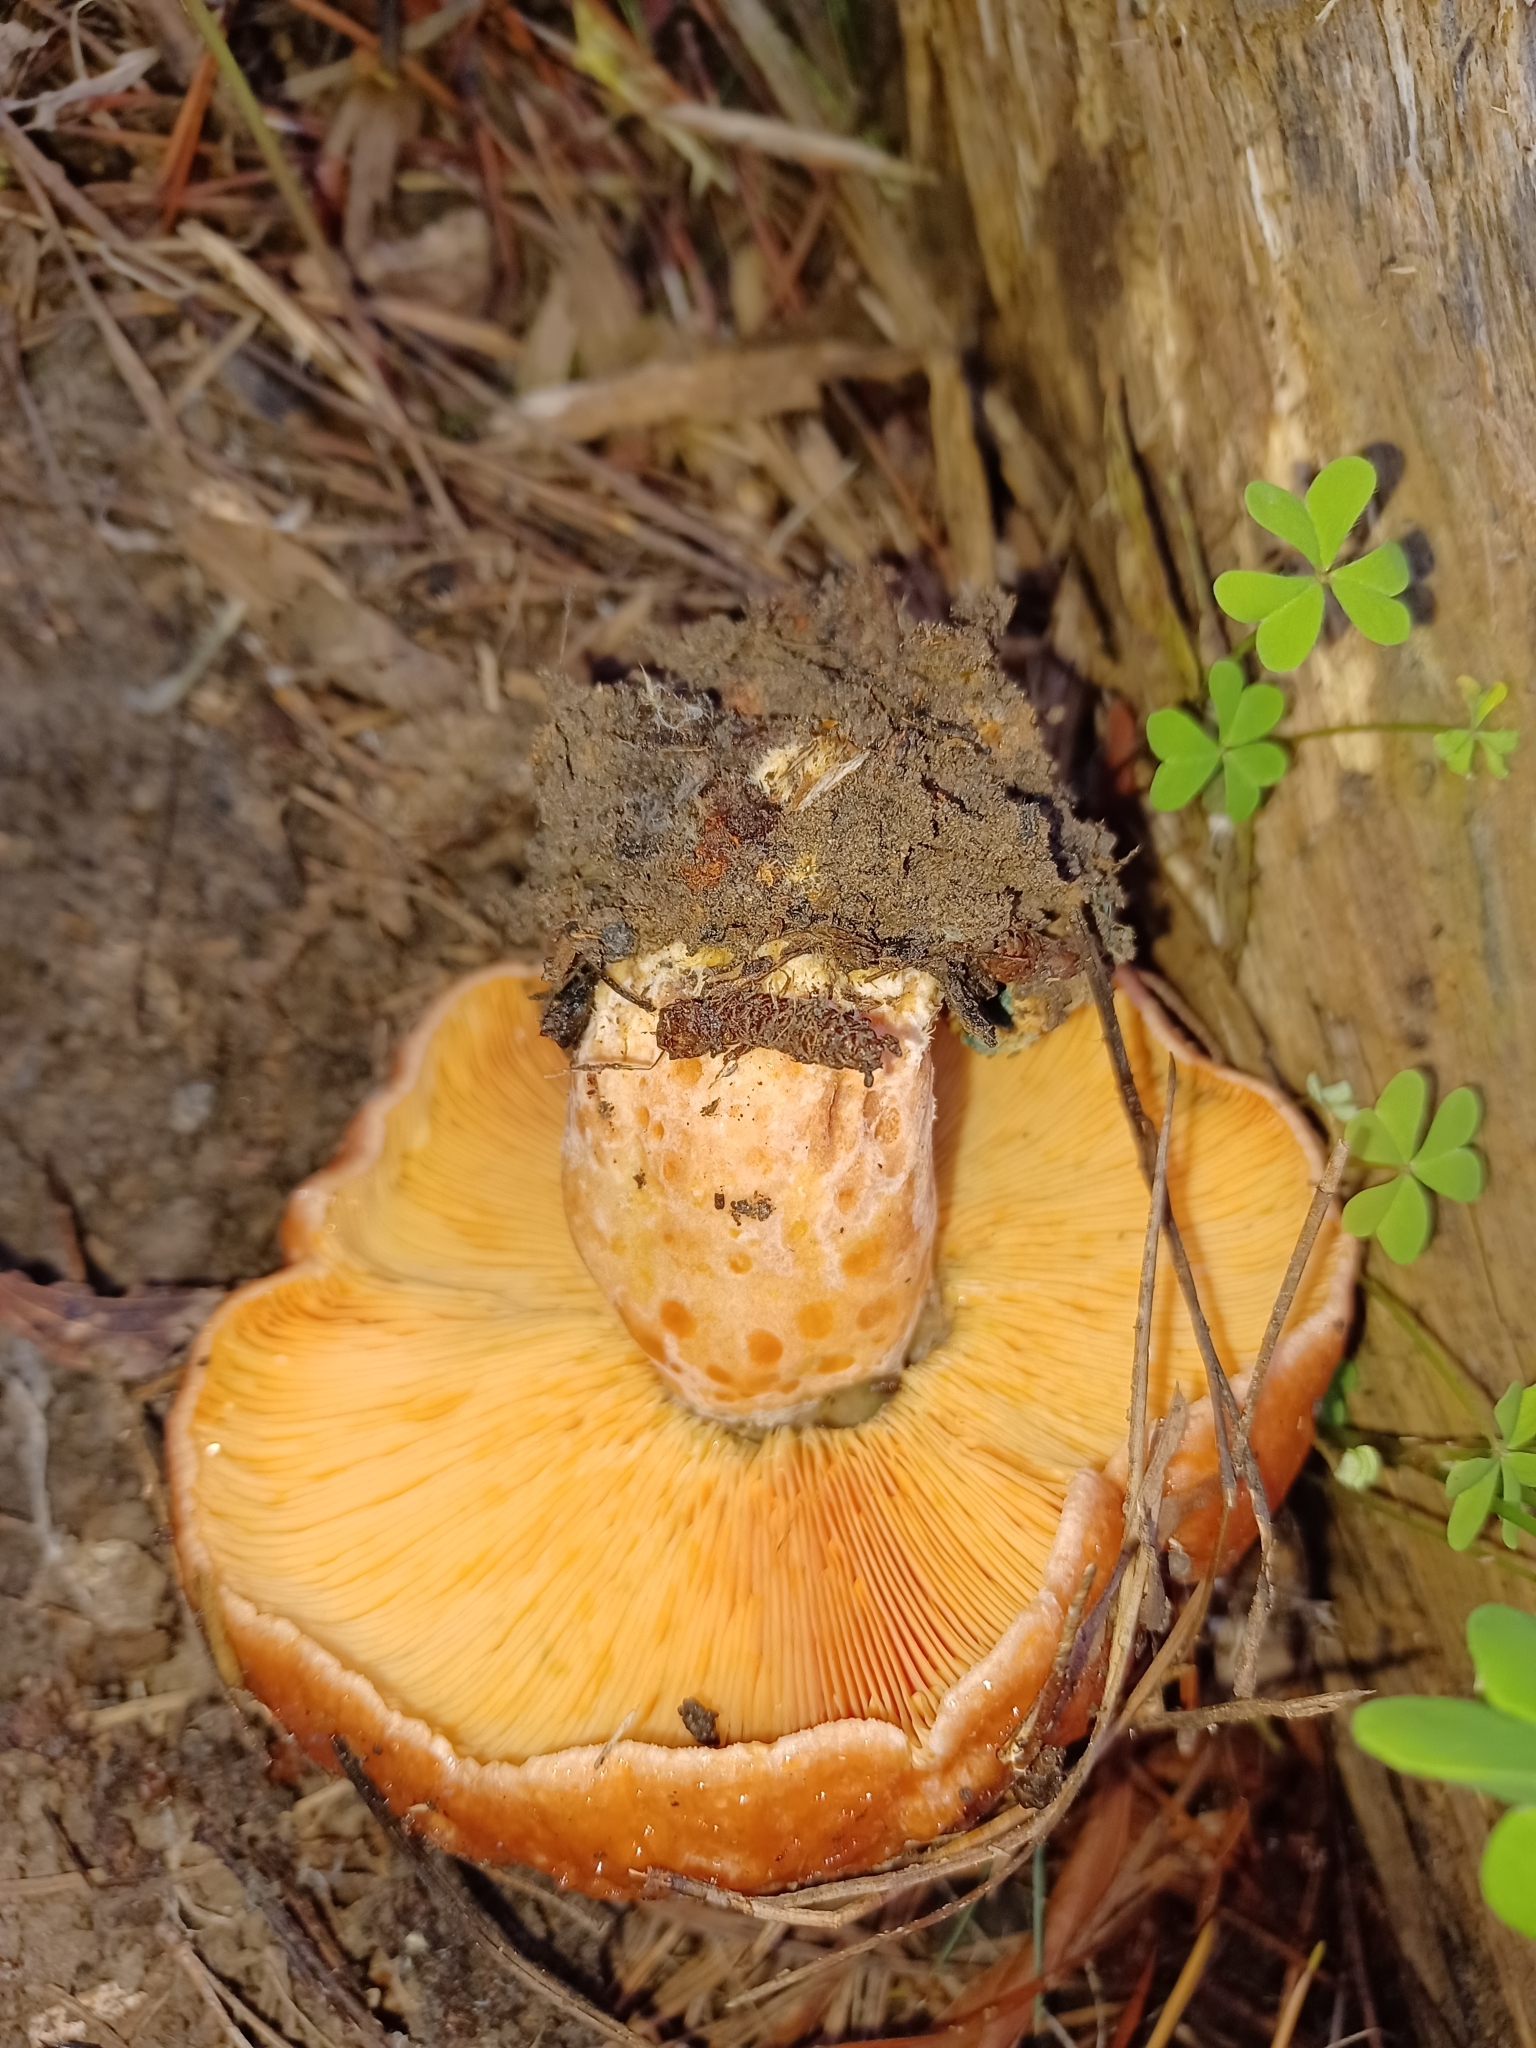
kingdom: Fungi
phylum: Basidiomycota
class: Agaricomycetes
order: Russulales
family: Russulaceae
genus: Lactarius
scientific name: Lactarius deliciosus
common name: Saffron milk-cap
